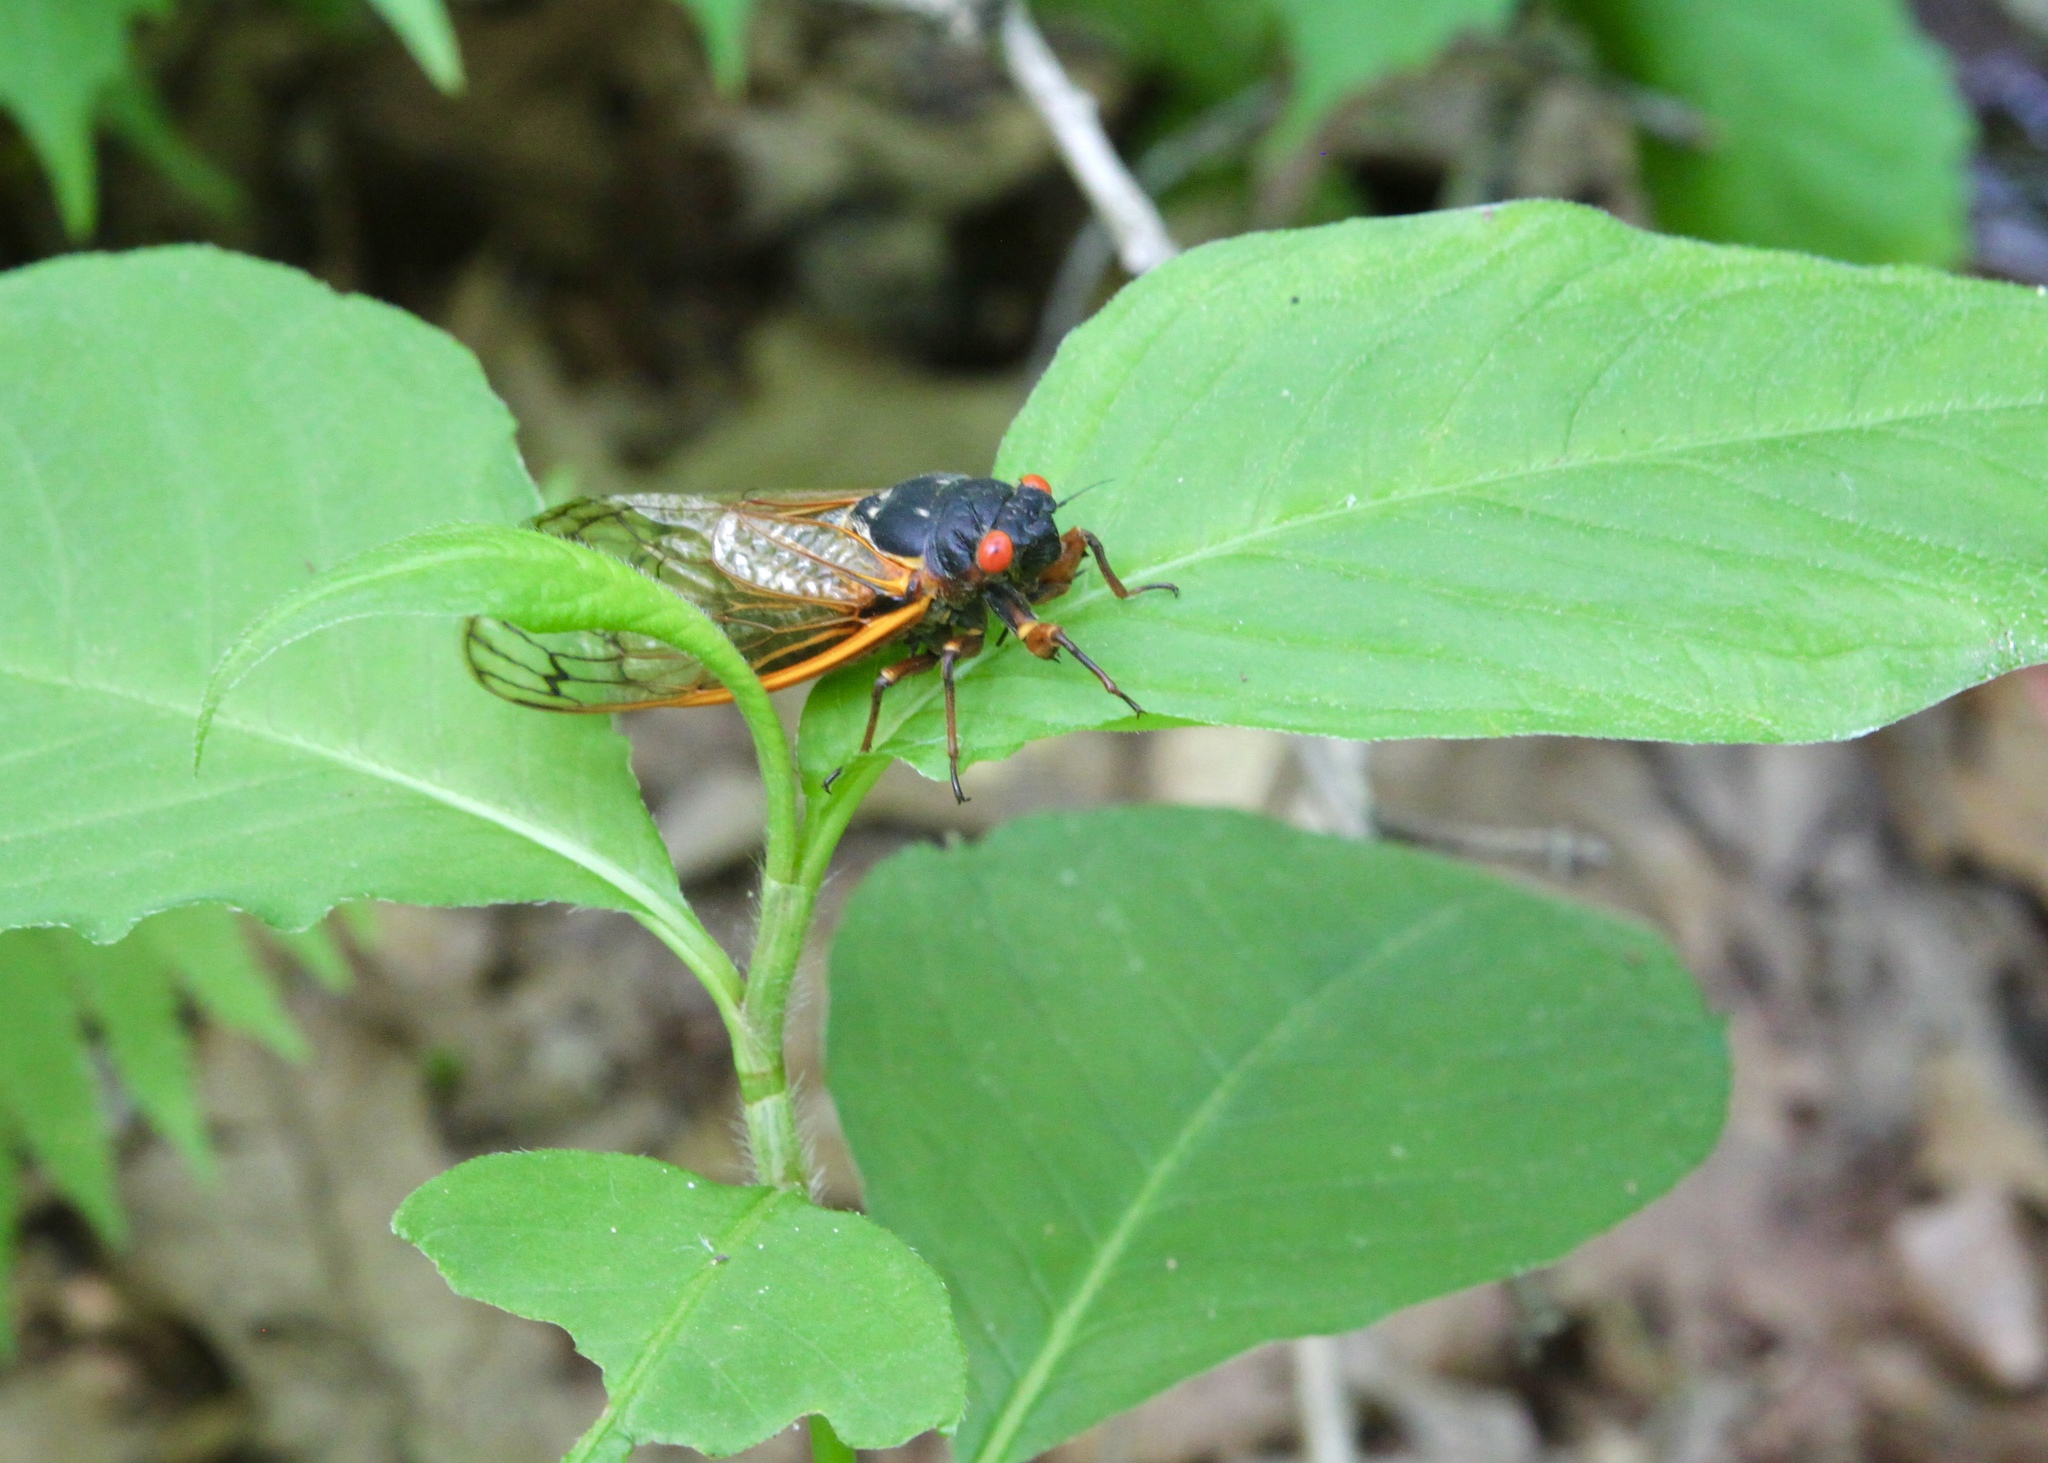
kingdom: Animalia
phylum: Arthropoda
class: Insecta
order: Hemiptera
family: Cicadidae
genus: Magicicada
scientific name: Magicicada septendecim
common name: Periodical cicada
